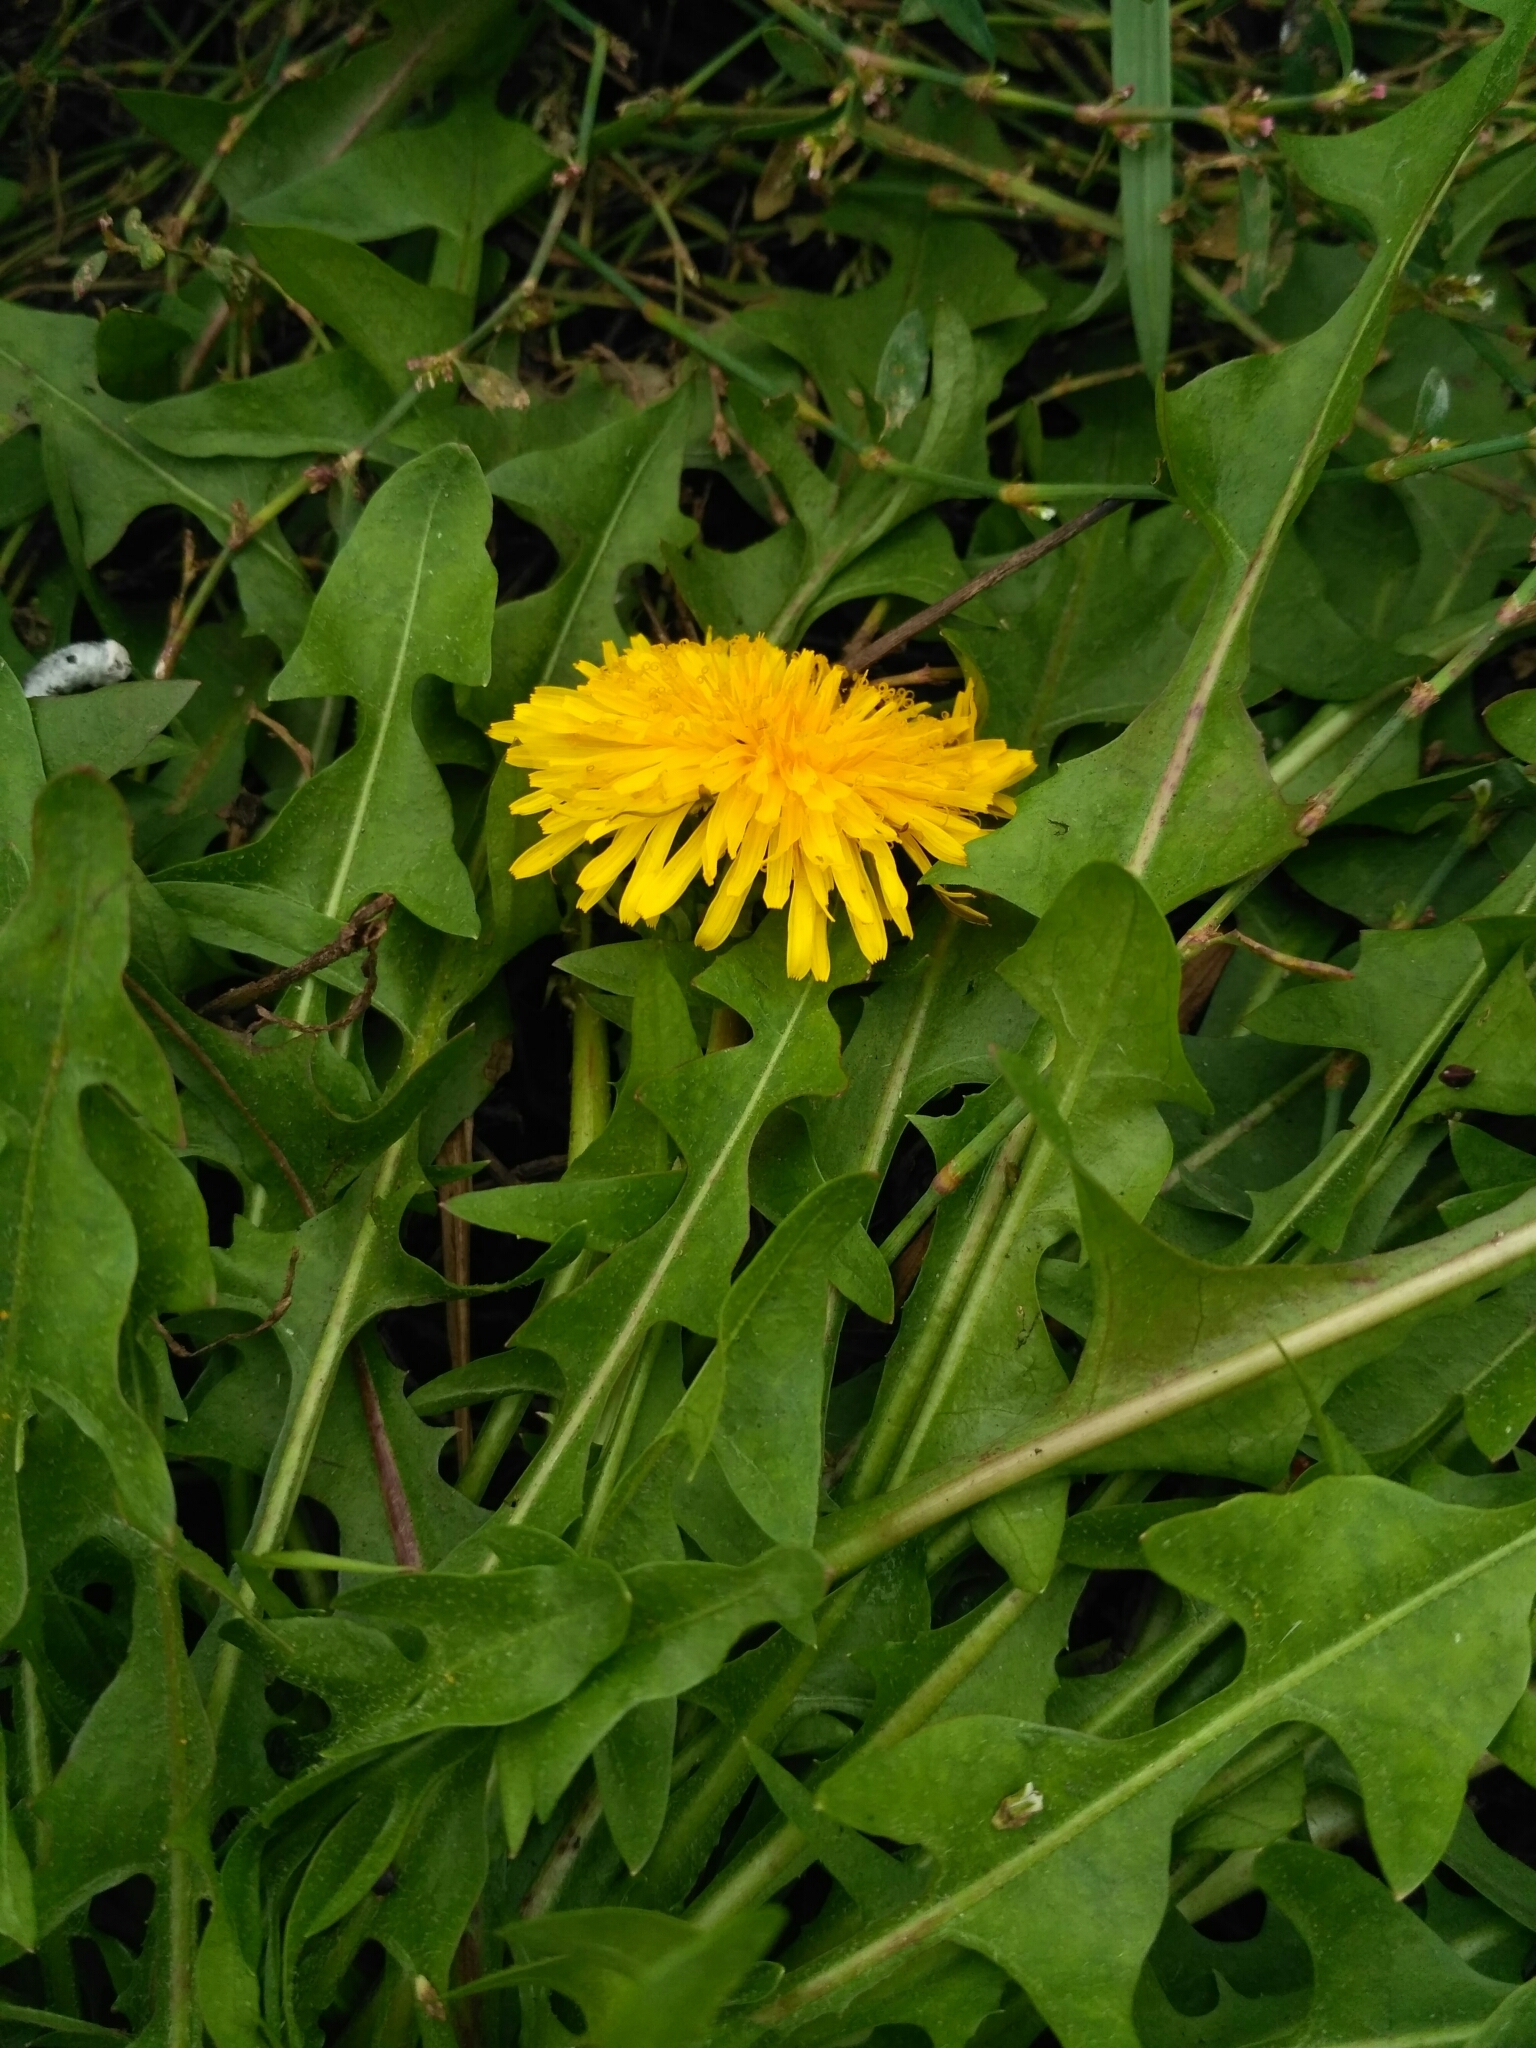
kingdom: Plantae
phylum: Tracheophyta
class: Magnoliopsida
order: Asterales
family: Asteraceae
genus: Taraxacum
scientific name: Taraxacum officinale
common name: Common dandelion
